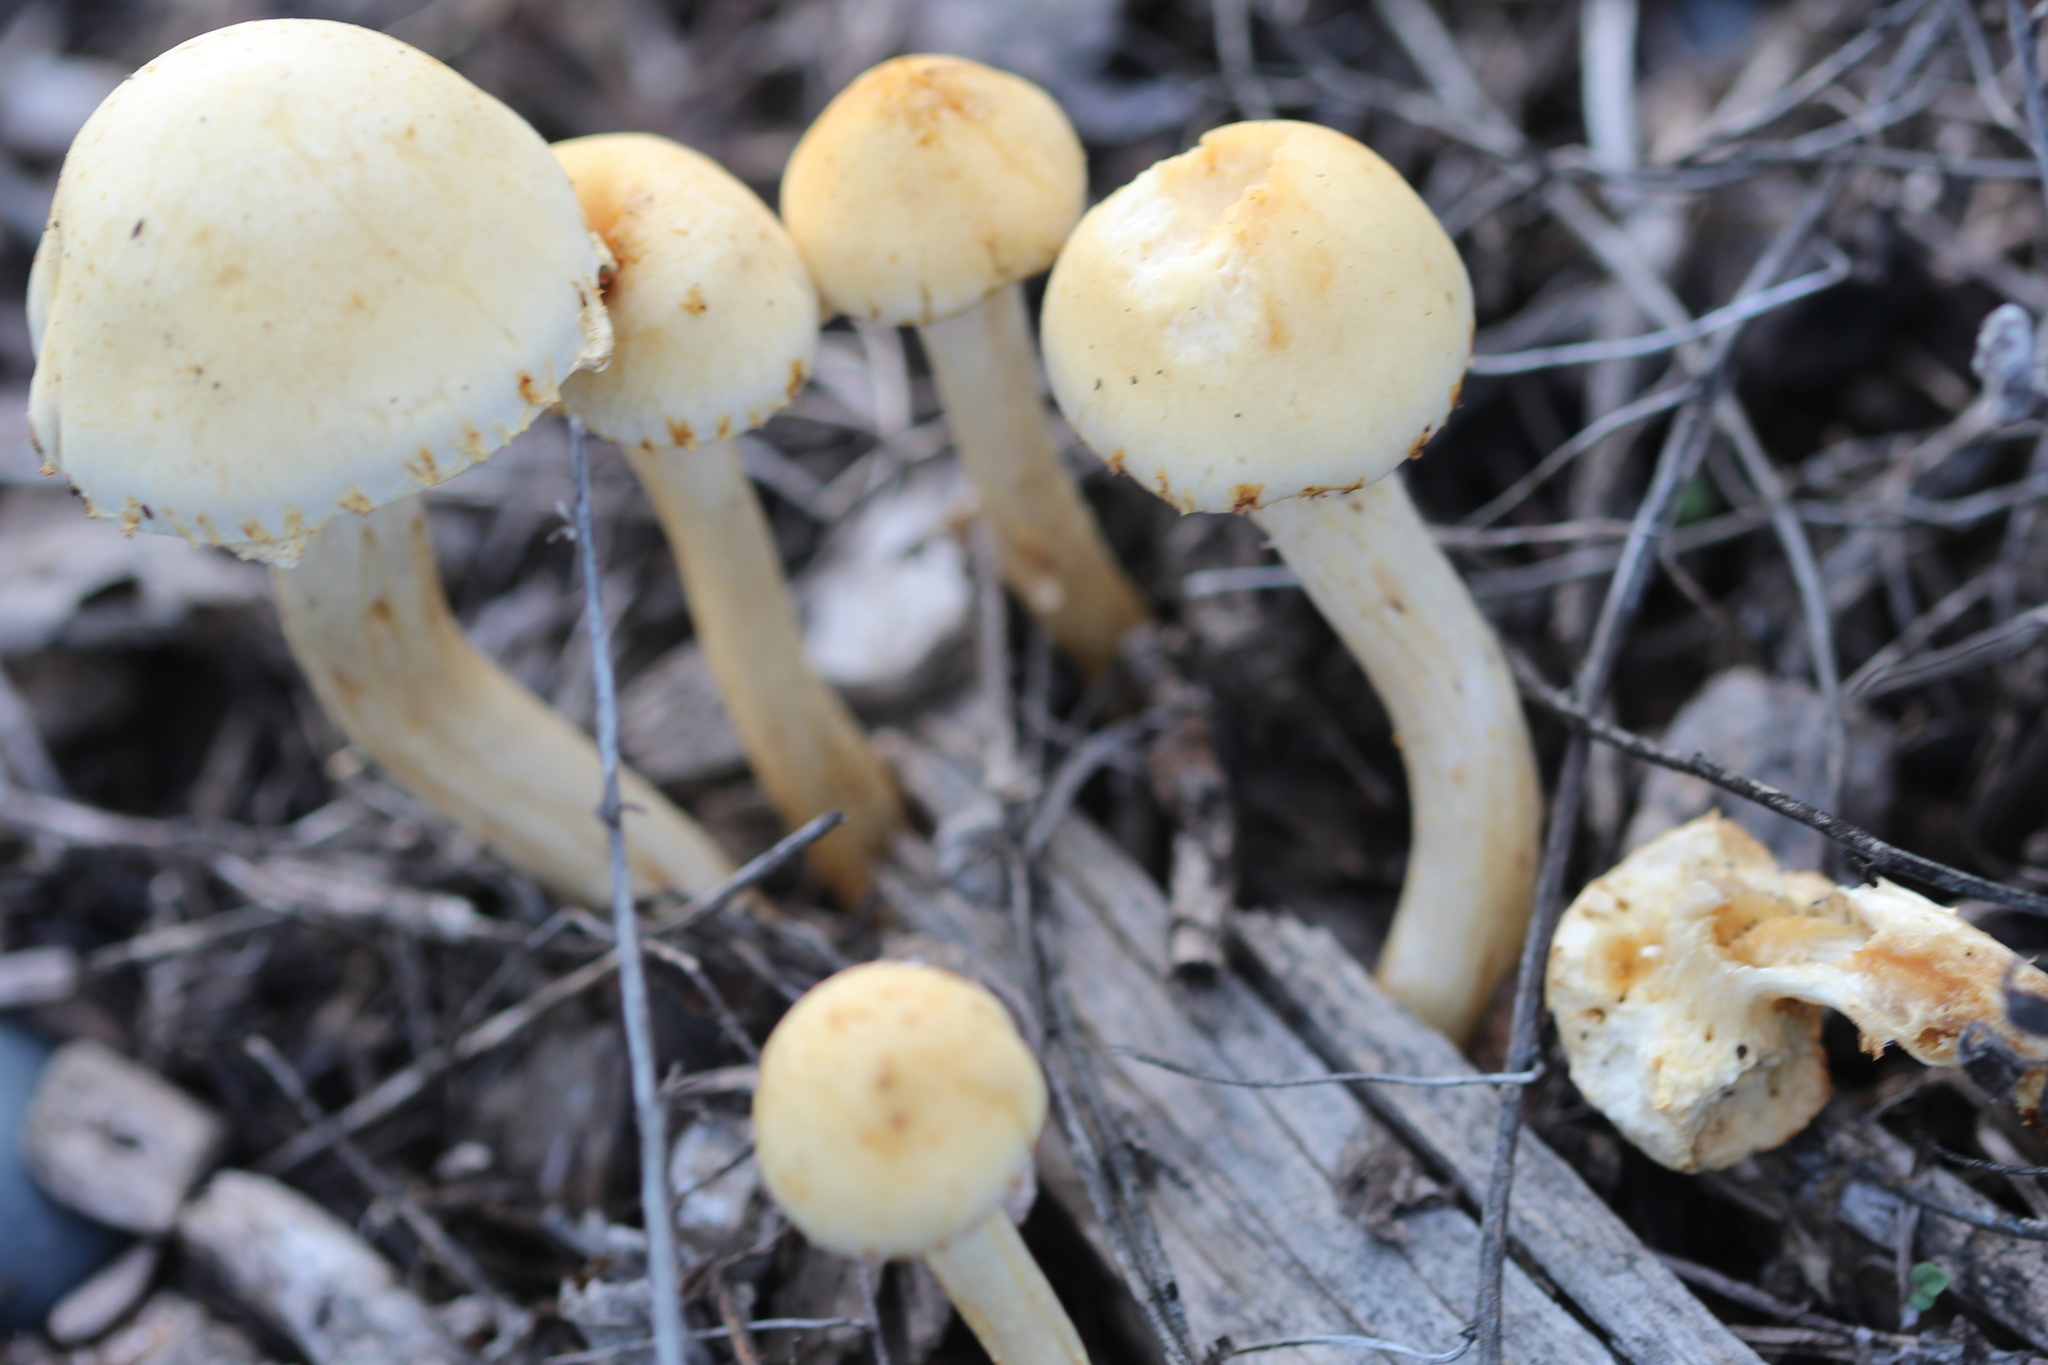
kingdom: Fungi
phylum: Basidiomycota
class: Agaricomycetes
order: Agaricales
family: Strophariaceae
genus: Leratiomyces
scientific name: Leratiomyces percevalii
